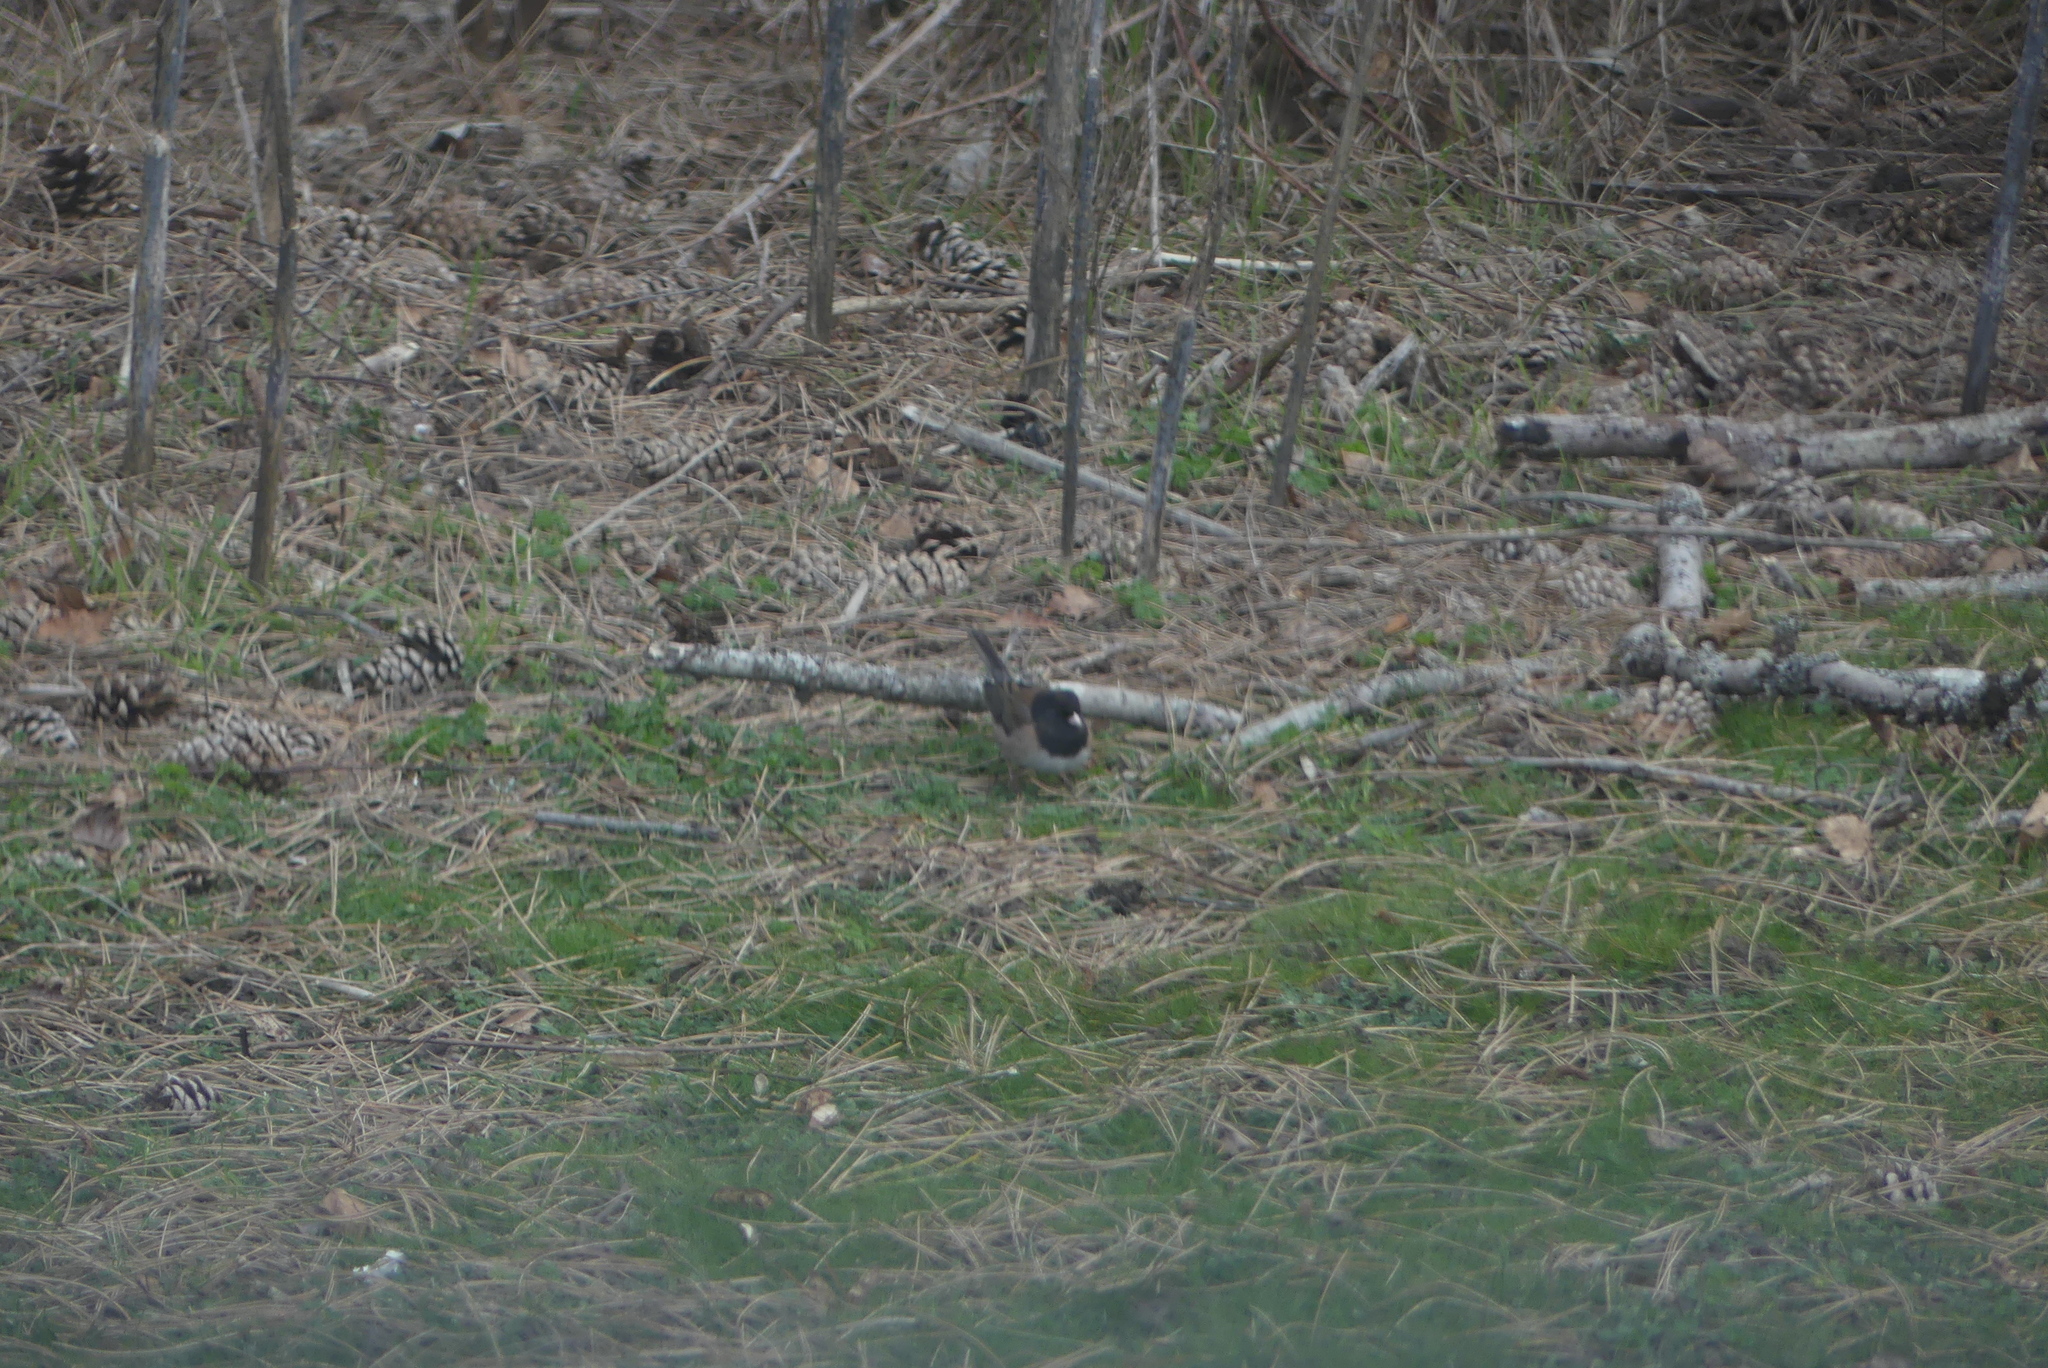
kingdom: Animalia
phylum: Chordata
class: Aves
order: Passeriformes
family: Passerellidae
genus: Junco
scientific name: Junco hyemalis
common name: Dark-eyed junco
